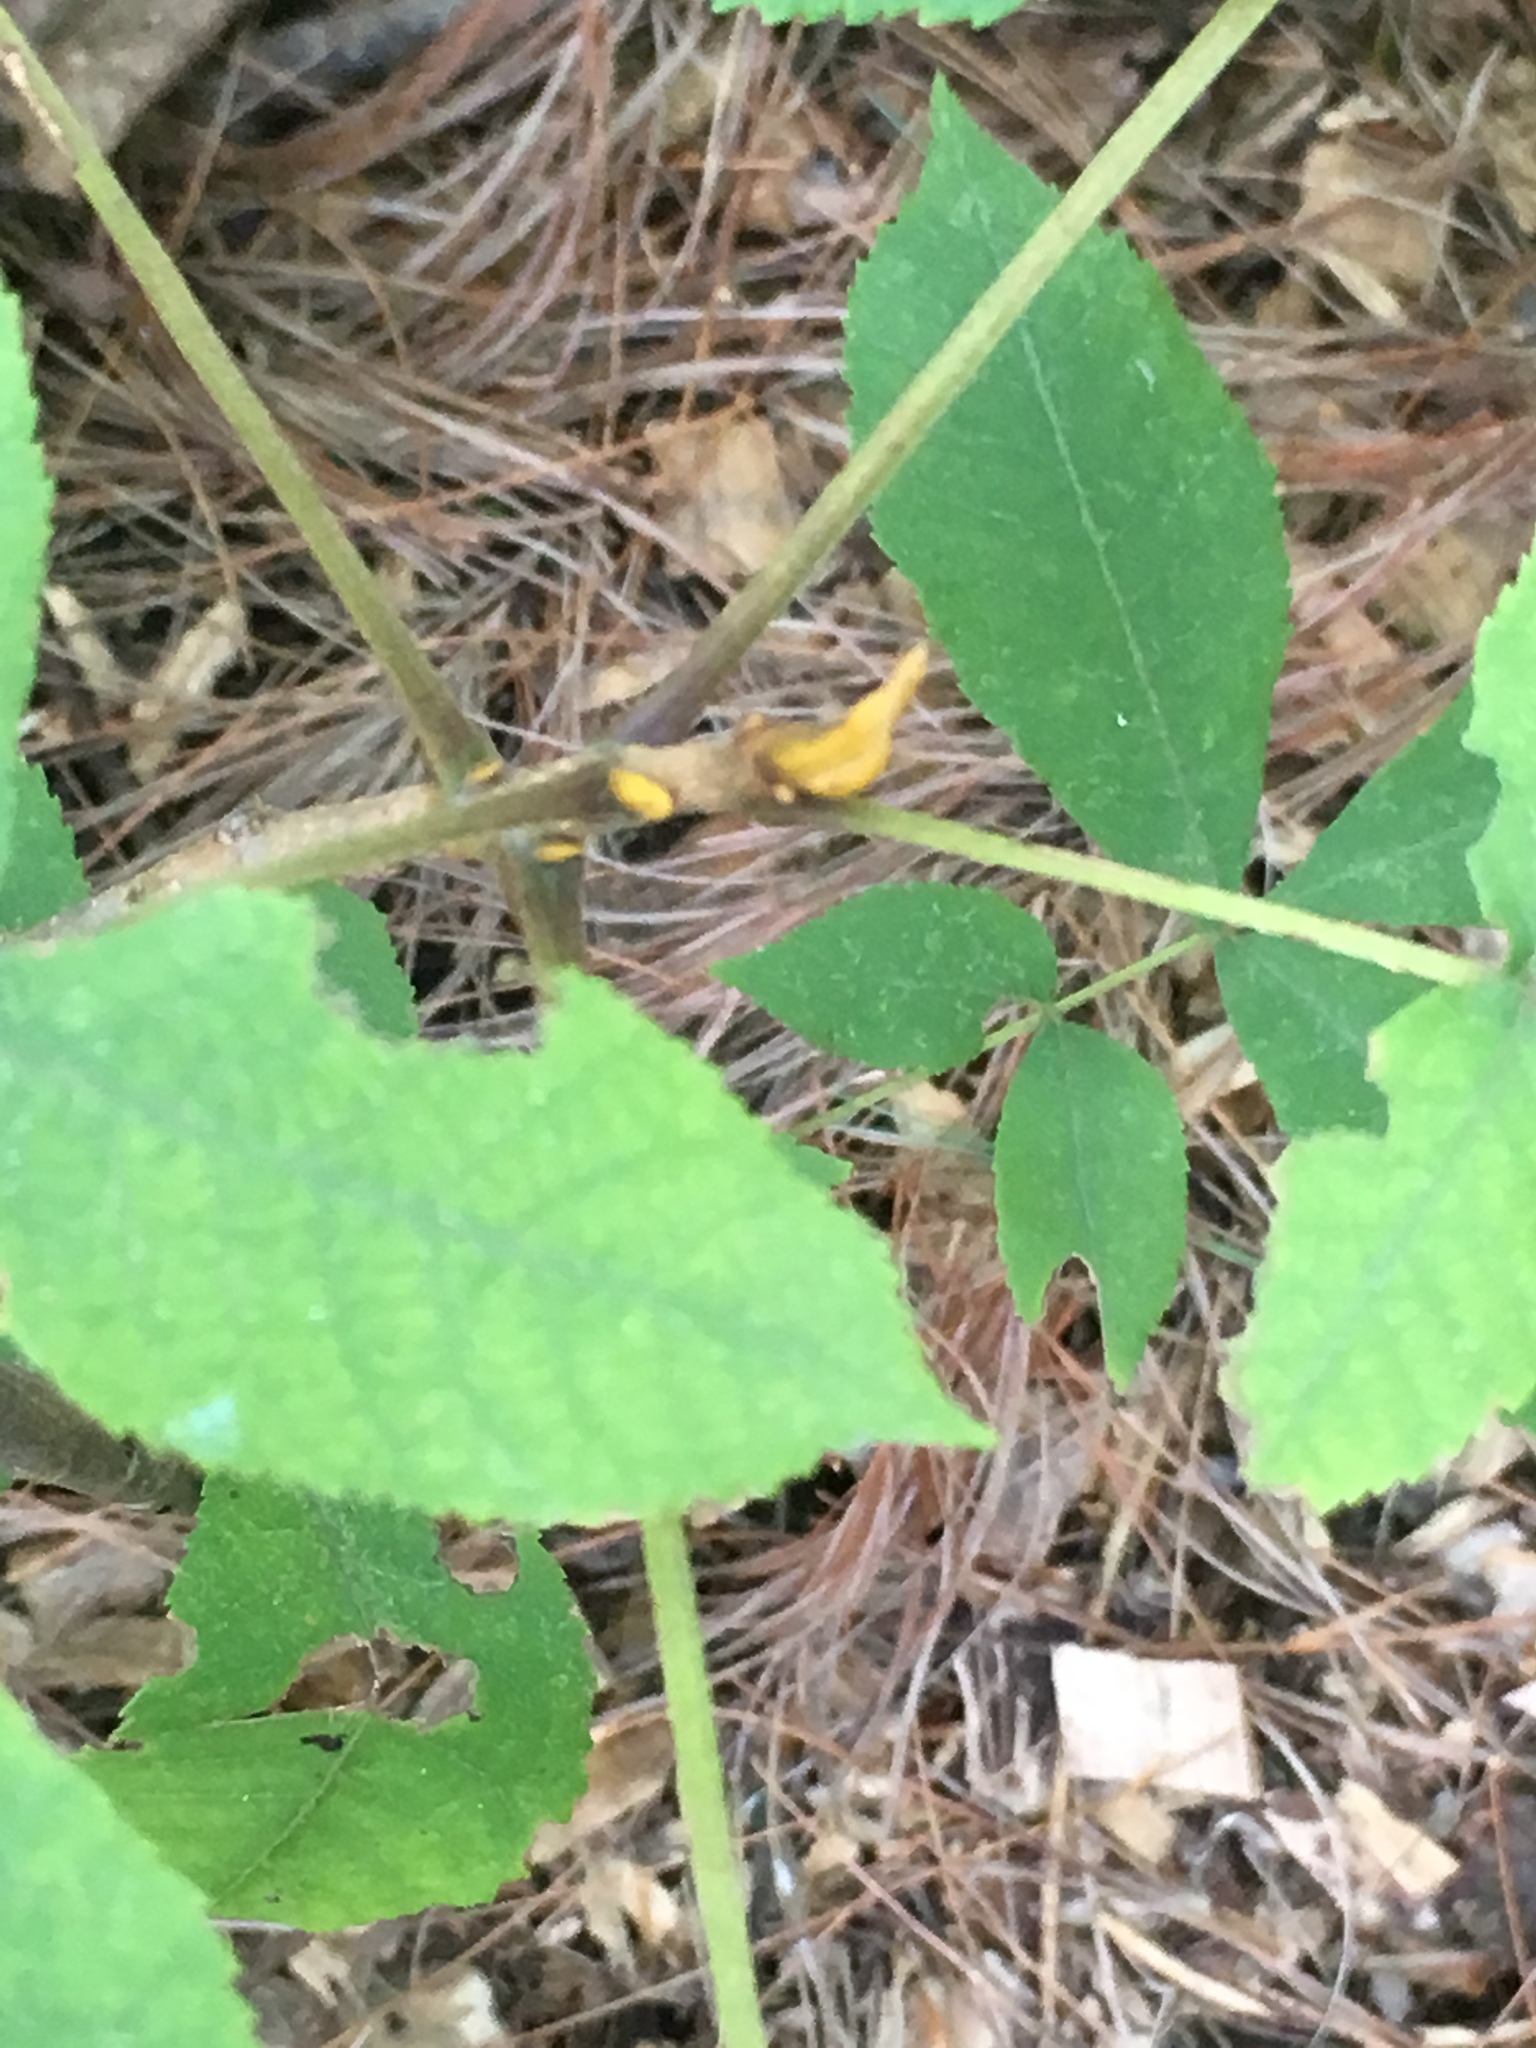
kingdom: Plantae
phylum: Tracheophyta
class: Magnoliopsida
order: Fagales
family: Juglandaceae
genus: Carya
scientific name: Carya cordiformis
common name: Bitternut hickory
